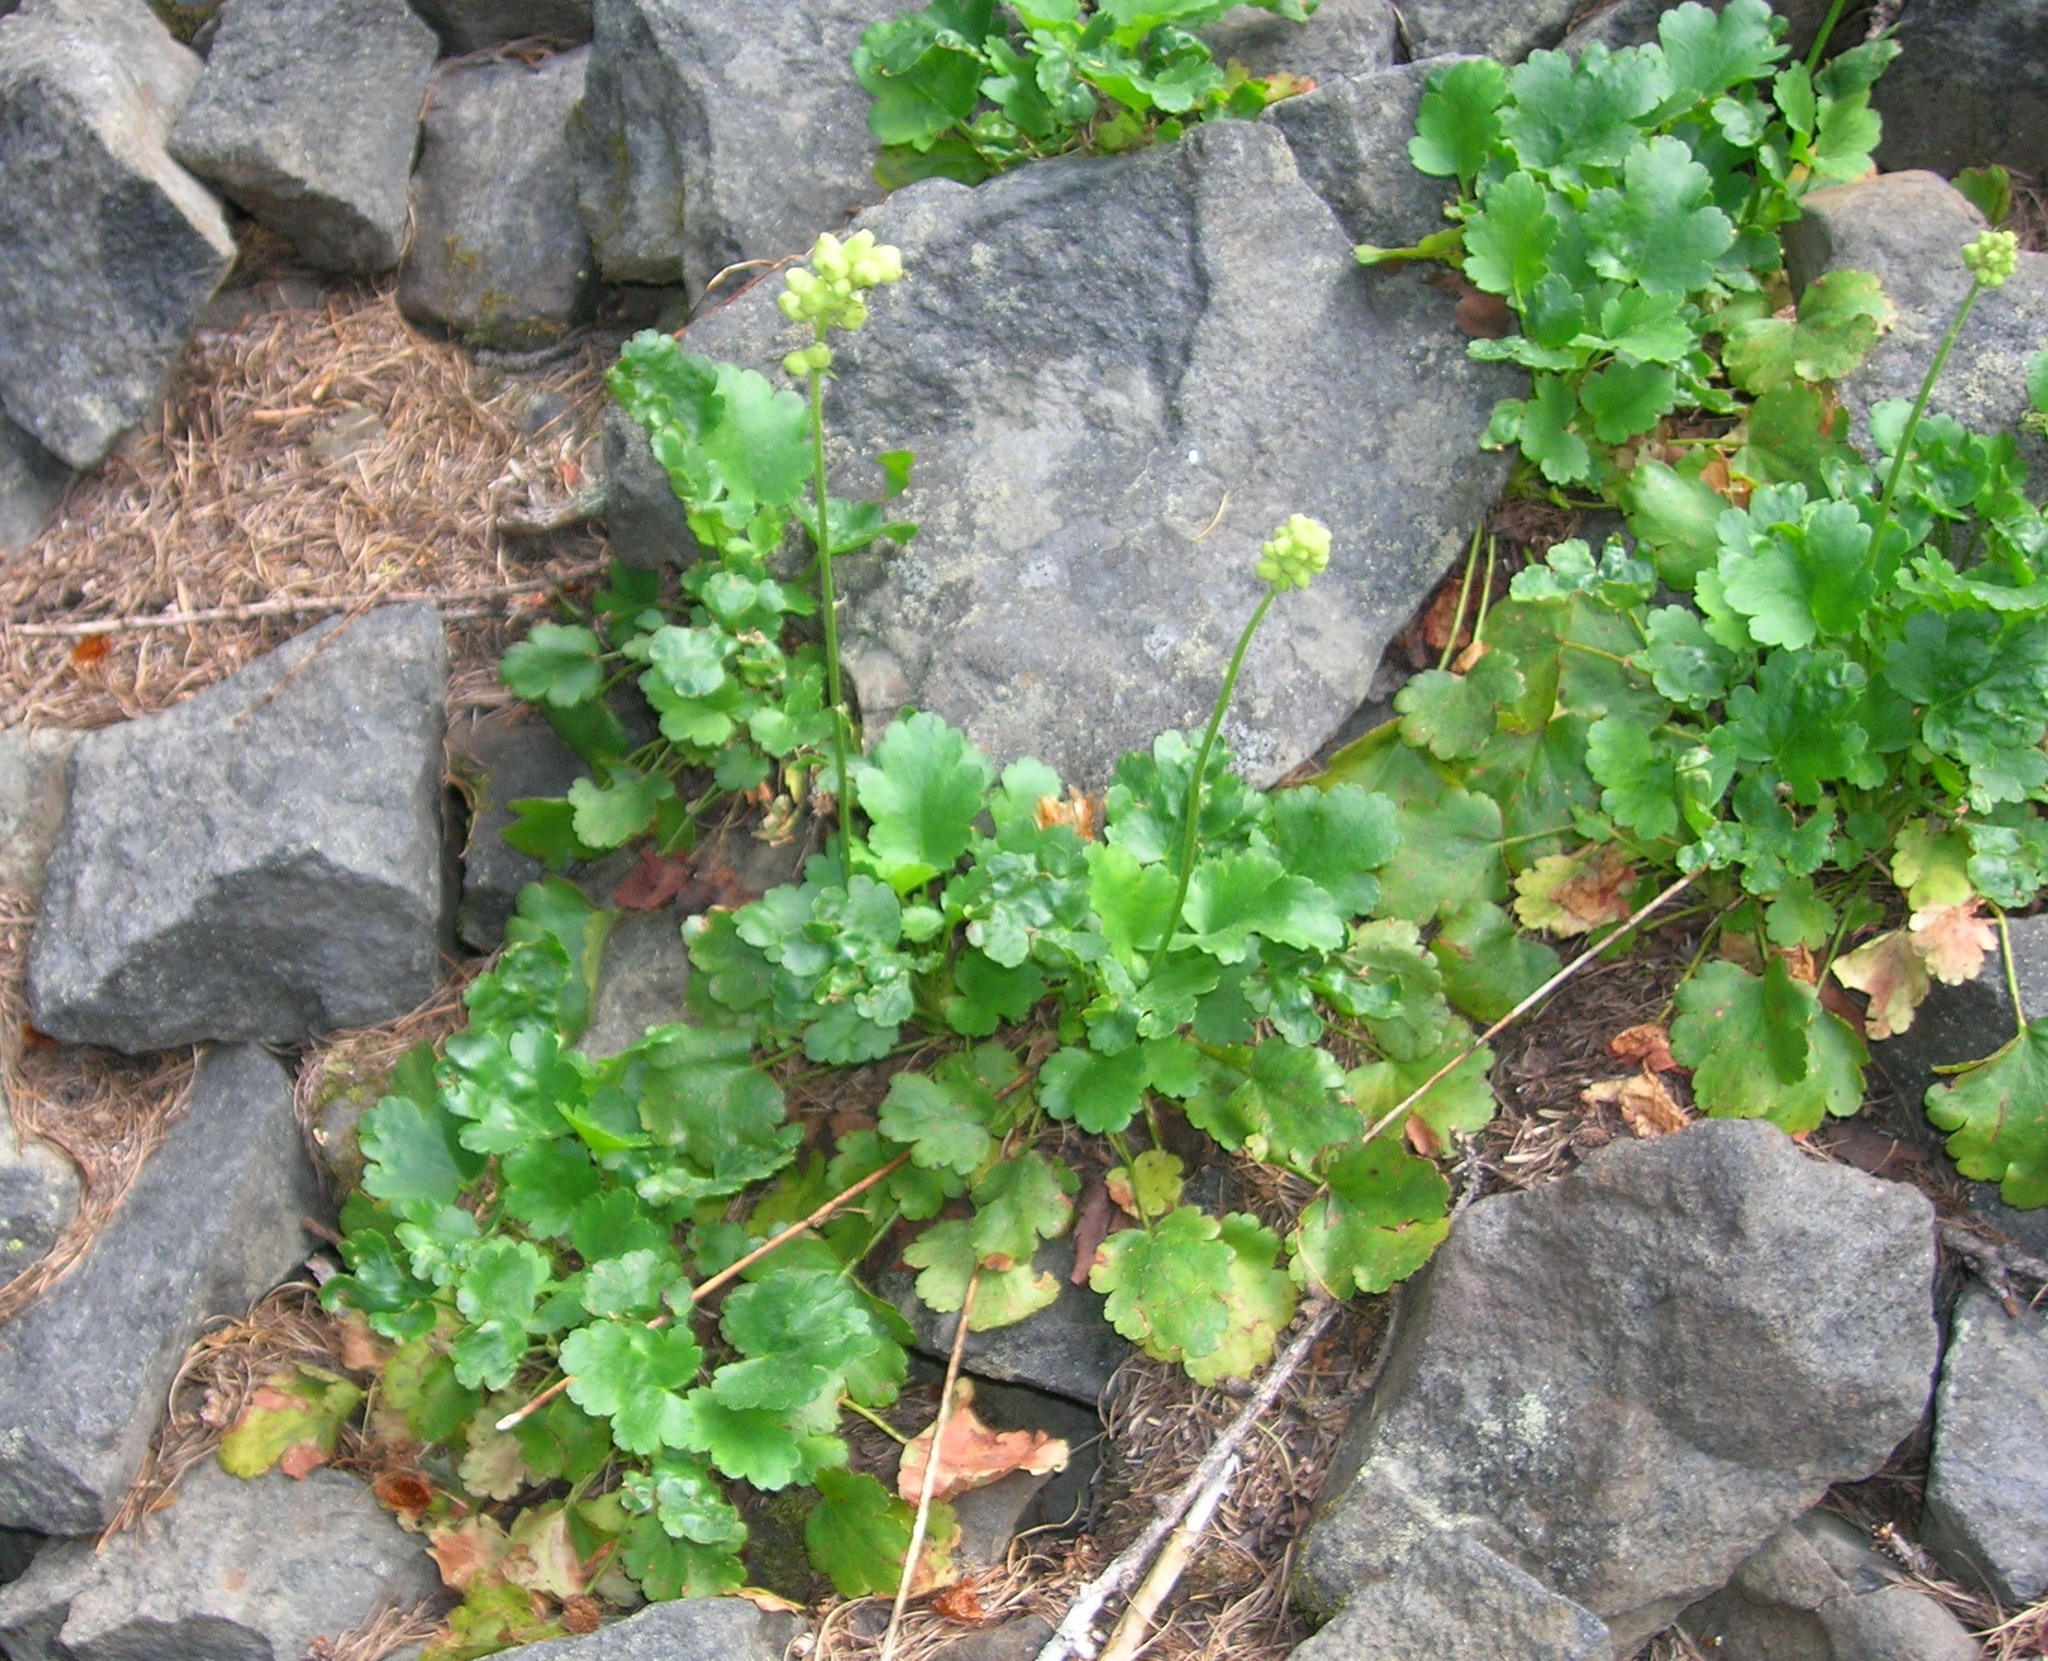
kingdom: Plantae
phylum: Tracheophyta
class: Magnoliopsida
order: Saxifragales
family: Saxifragaceae
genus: Heuchera
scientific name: Heuchera cylindrica
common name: Mat alumroot
